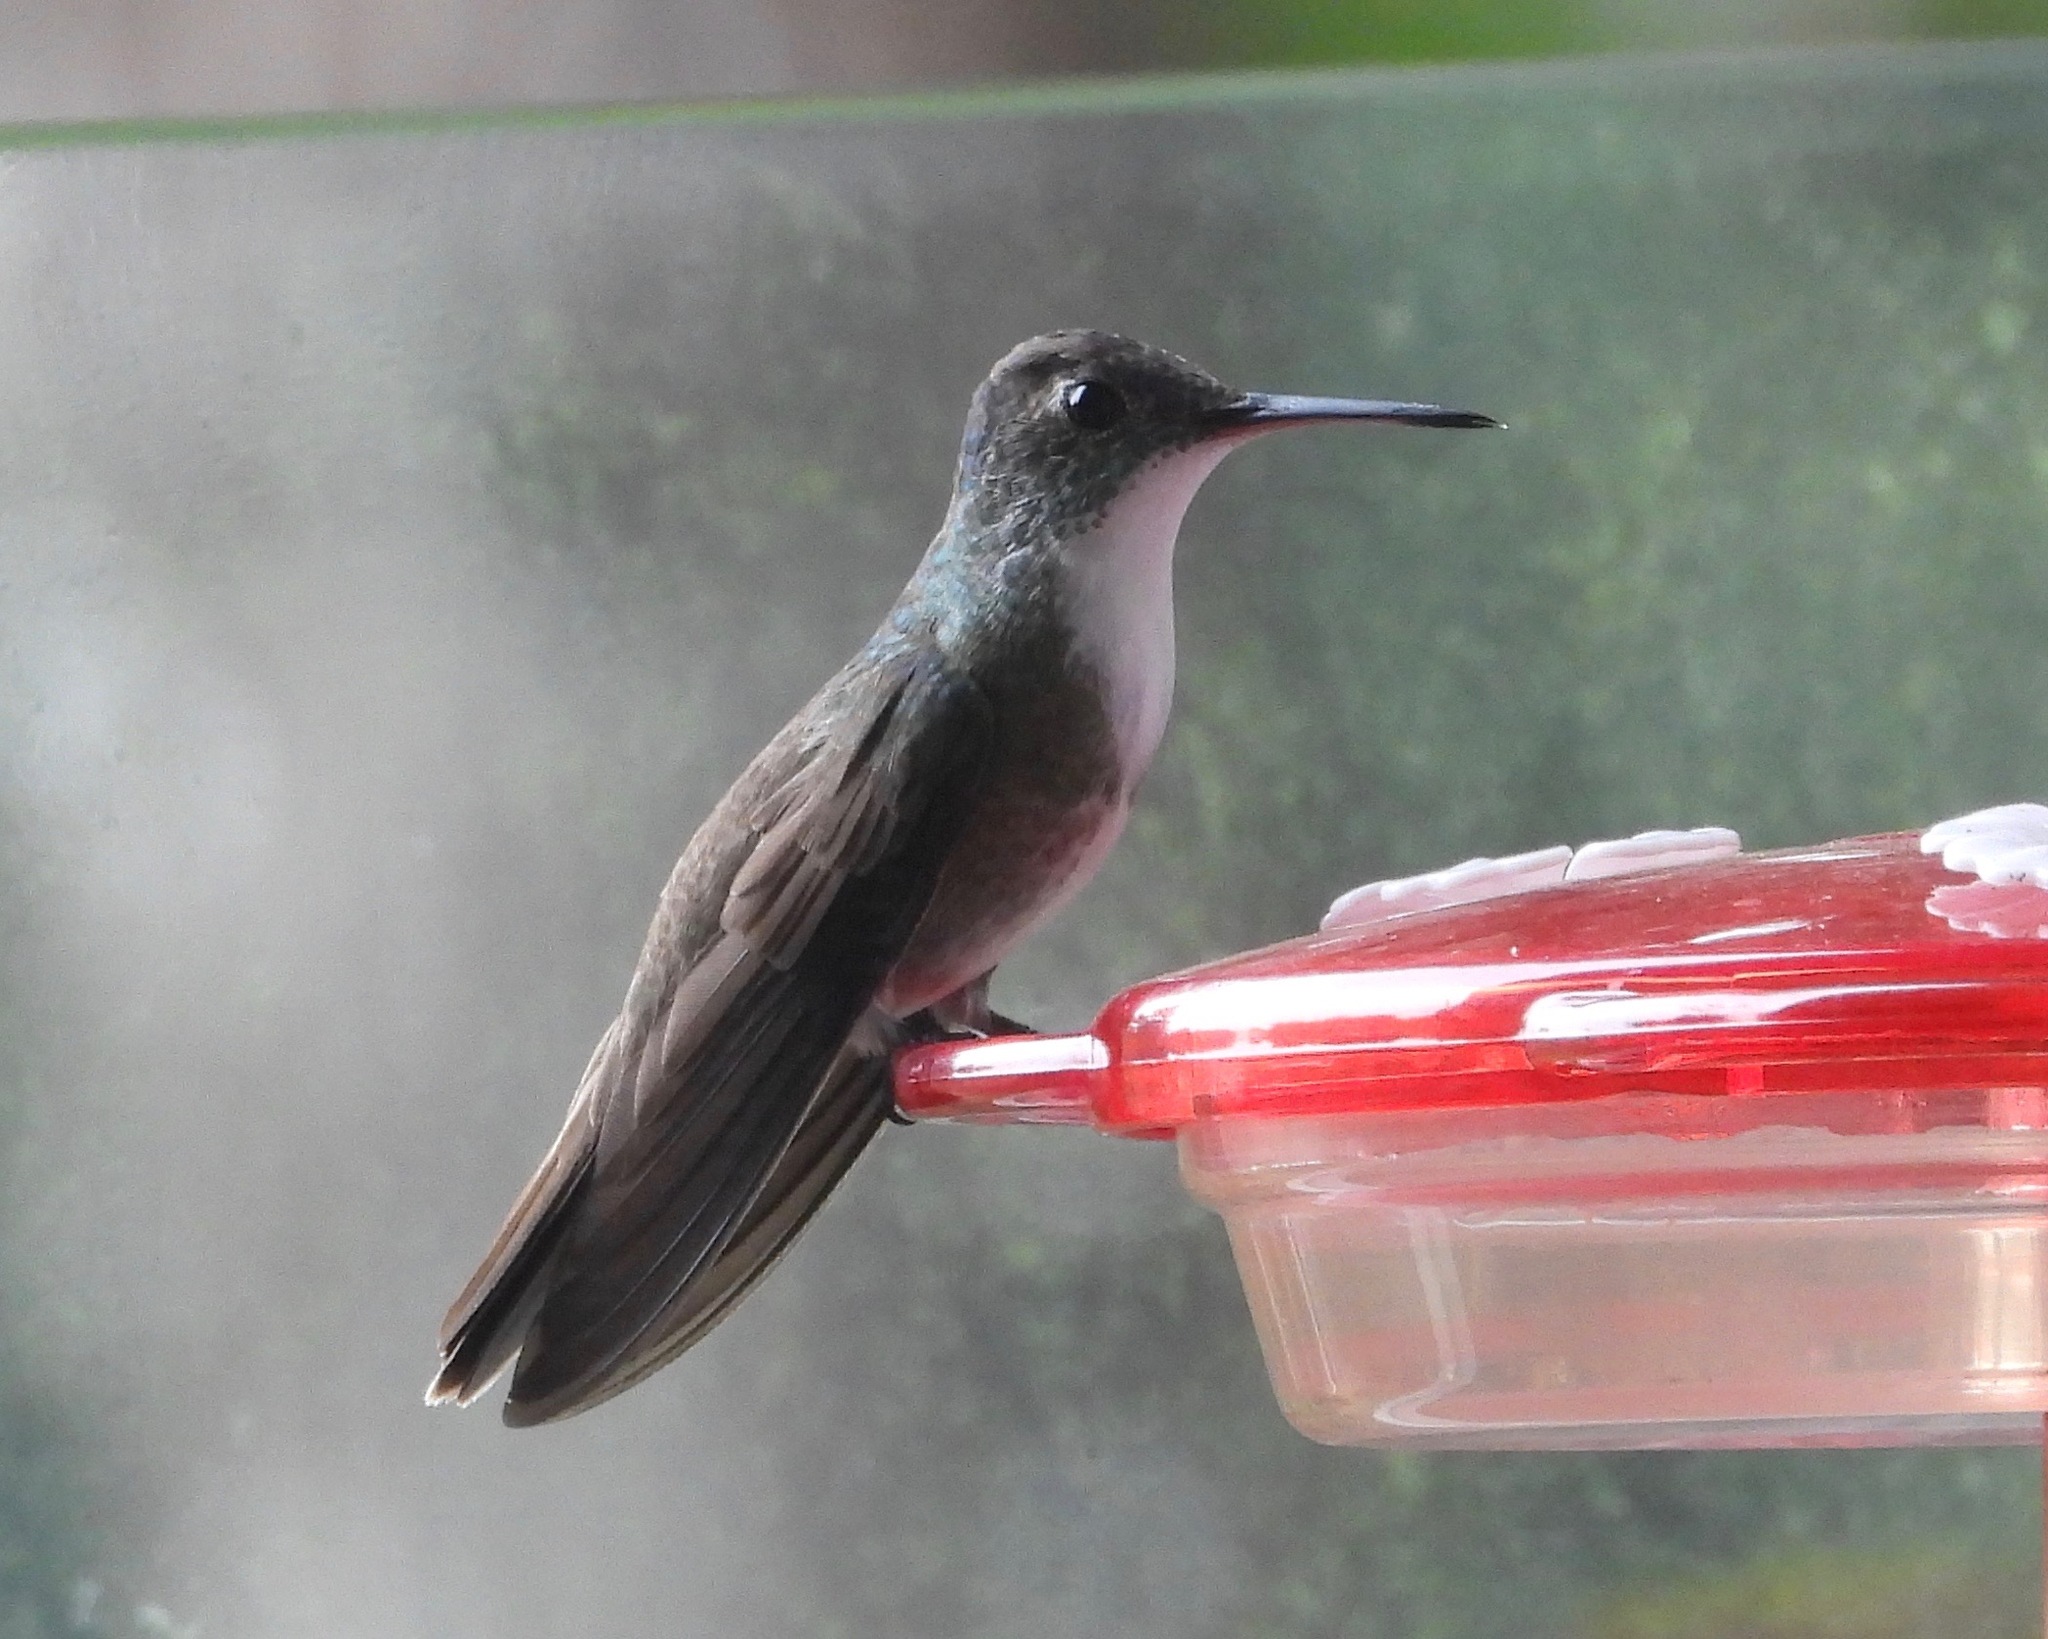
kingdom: Animalia
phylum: Chordata
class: Aves
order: Apodiformes
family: Trochilidae
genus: Saucerottia
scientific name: Saucerottia cyanocephala
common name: Azure-crowned hummingbird
